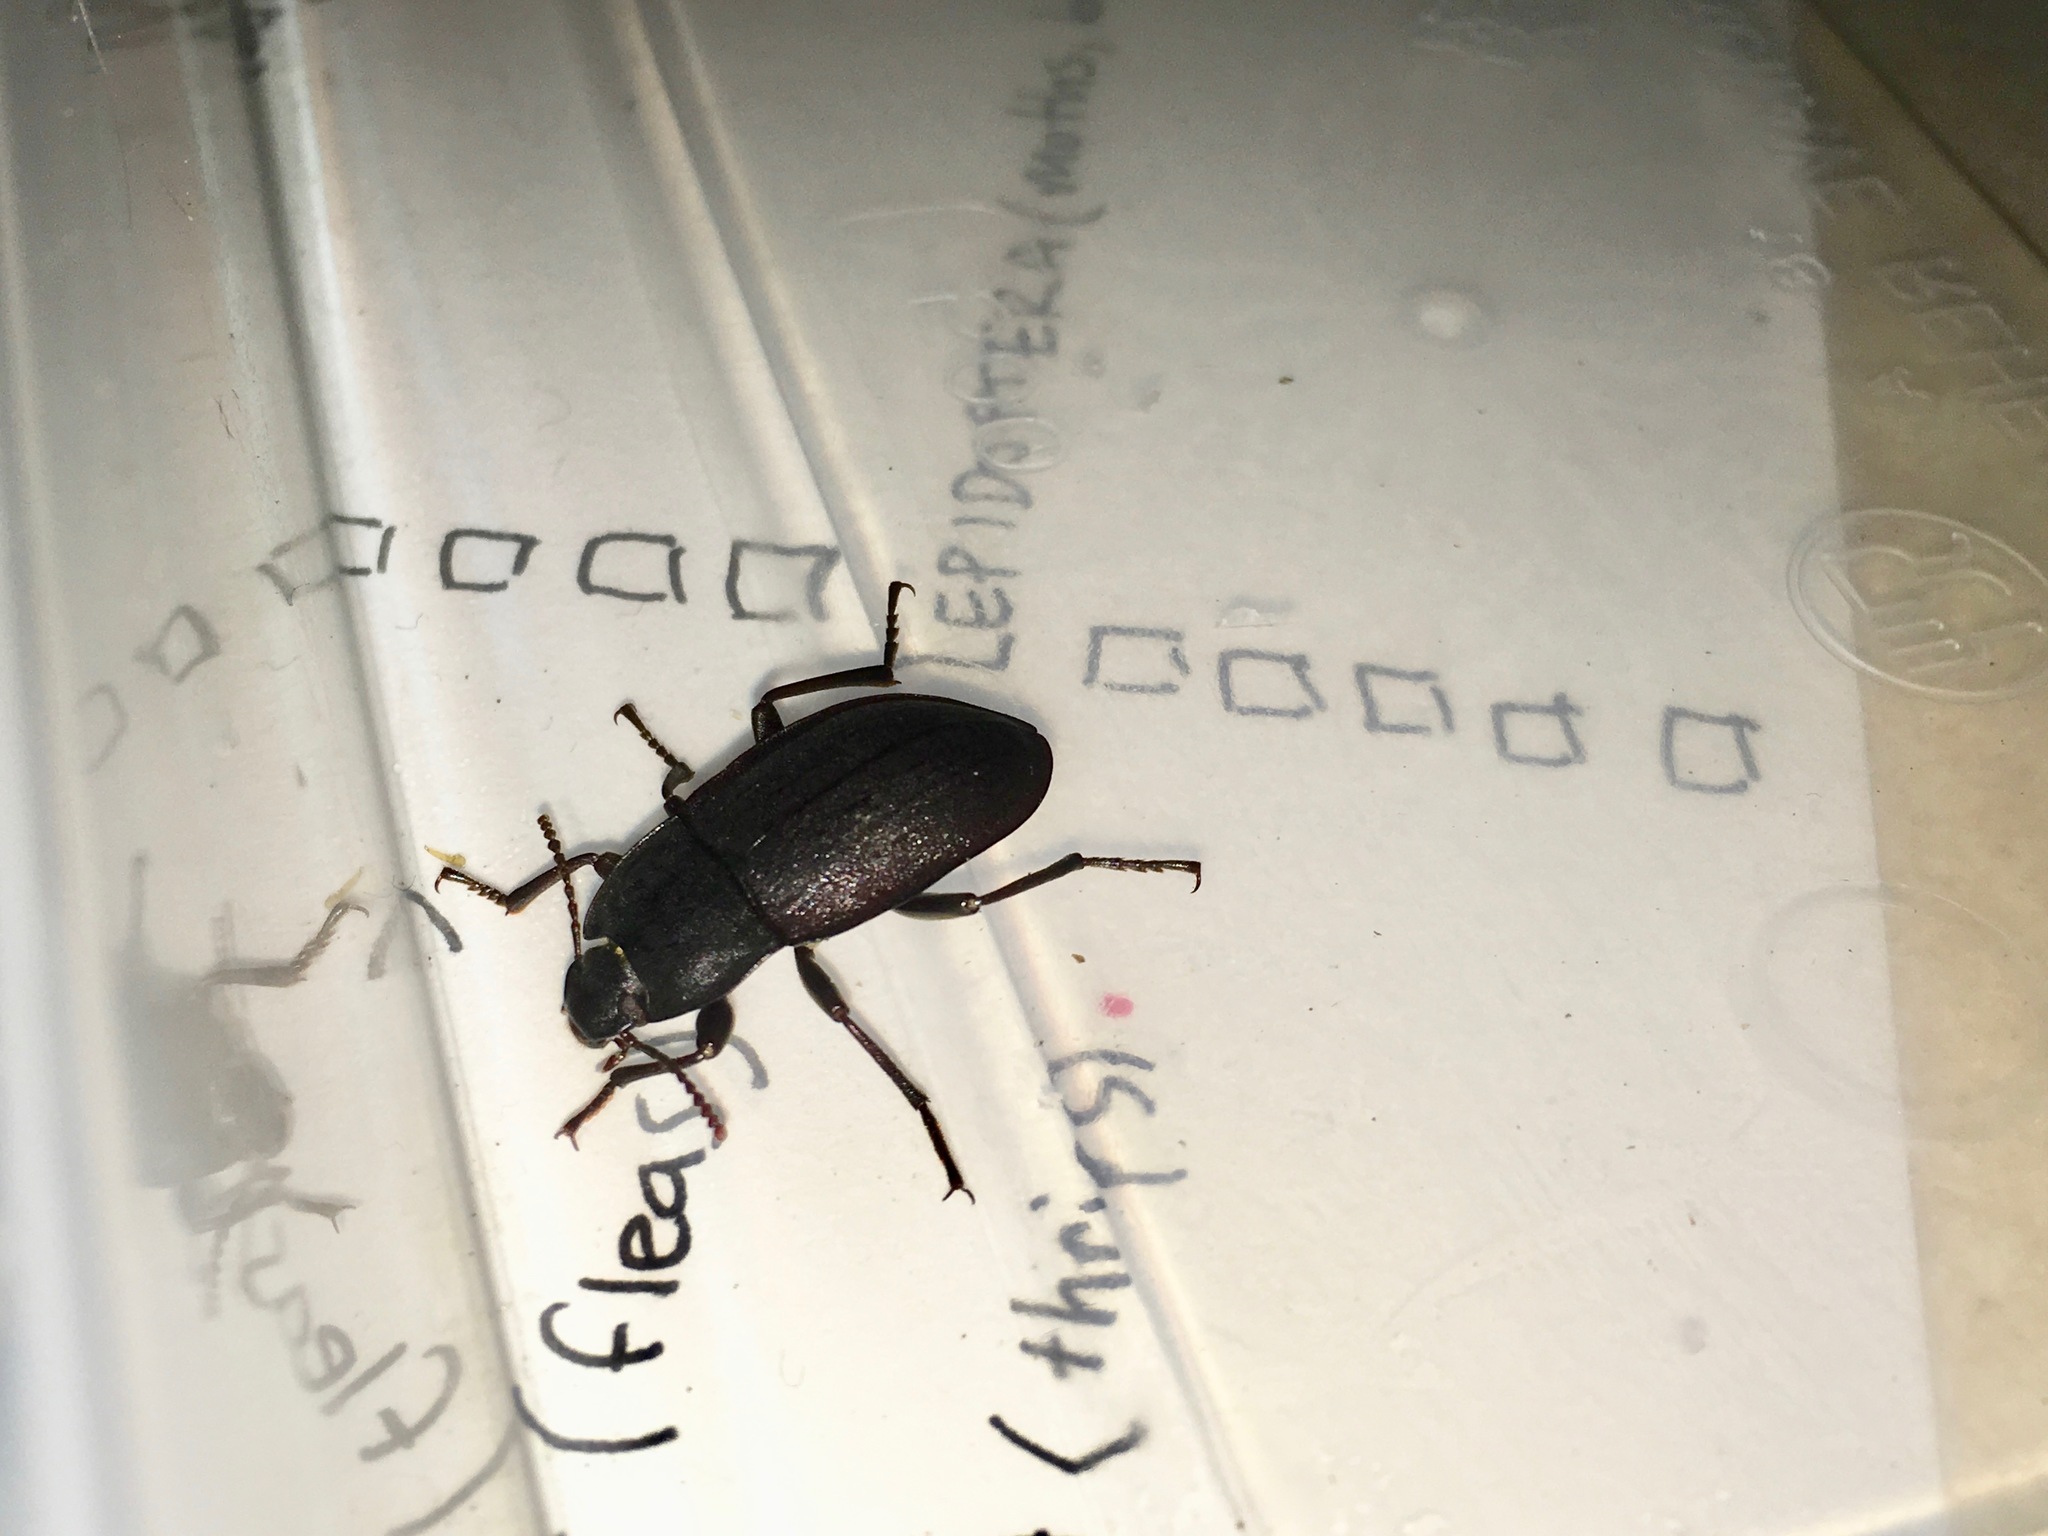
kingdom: Animalia
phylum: Arthropoda
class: Insecta
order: Coleoptera
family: Tenebrionidae
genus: Mimopeus
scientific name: Mimopeus
